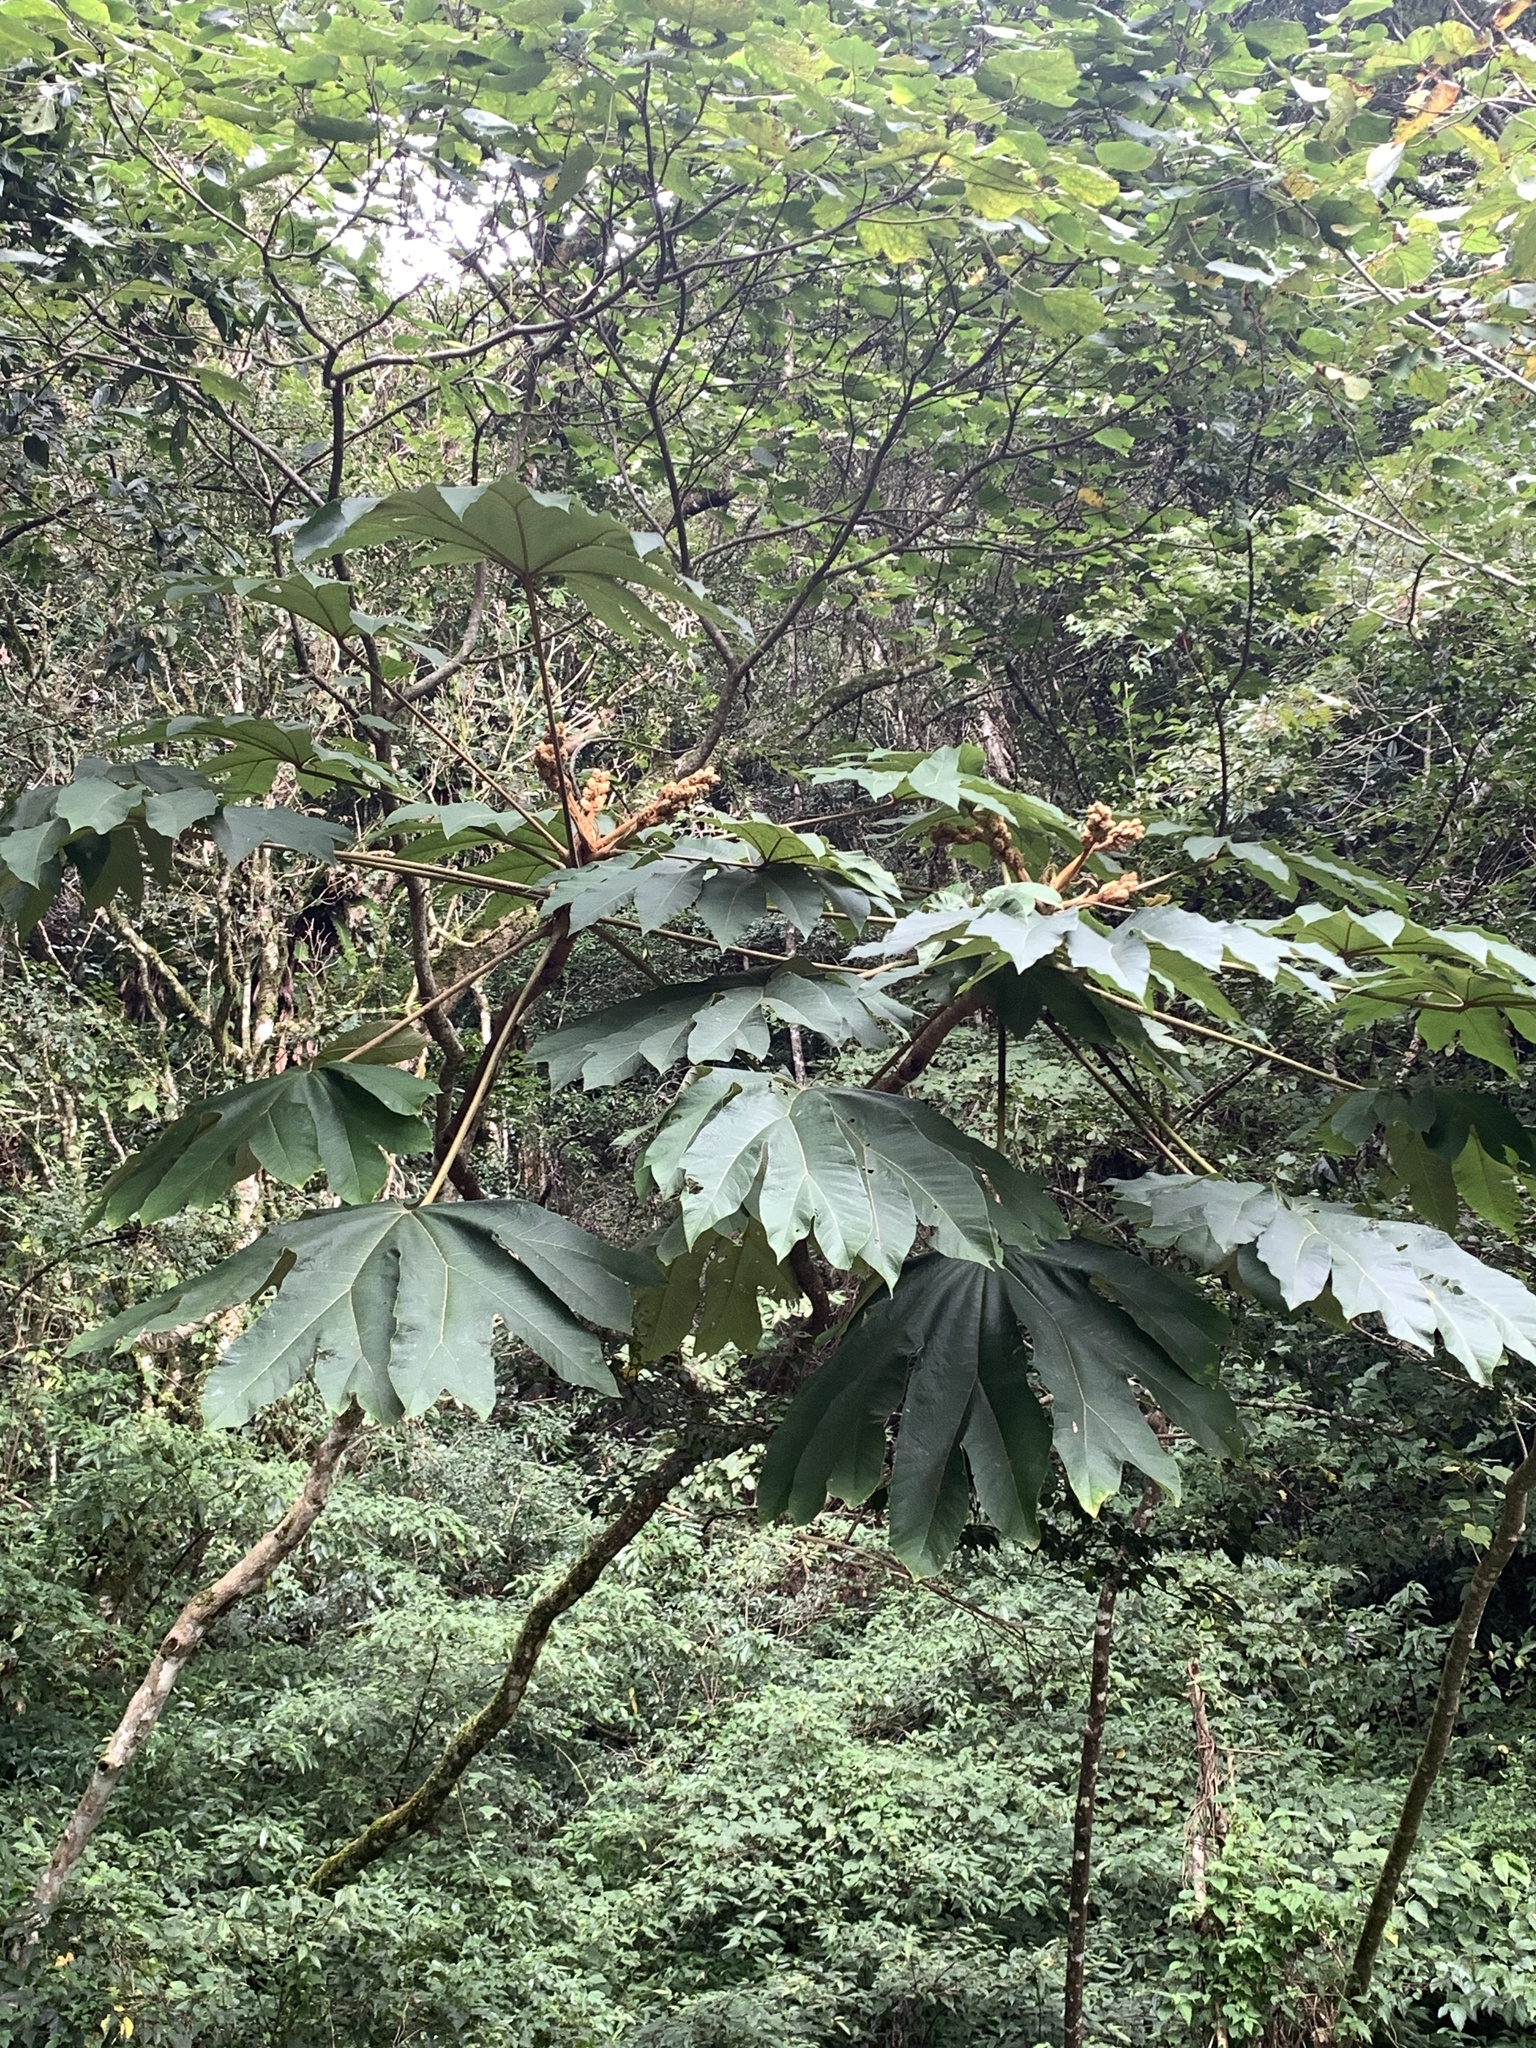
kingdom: Plantae
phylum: Tracheophyta
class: Magnoliopsida
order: Apiales
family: Araliaceae
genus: Tetrapanax
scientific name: Tetrapanax papyrifer
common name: Rice-paper plant
